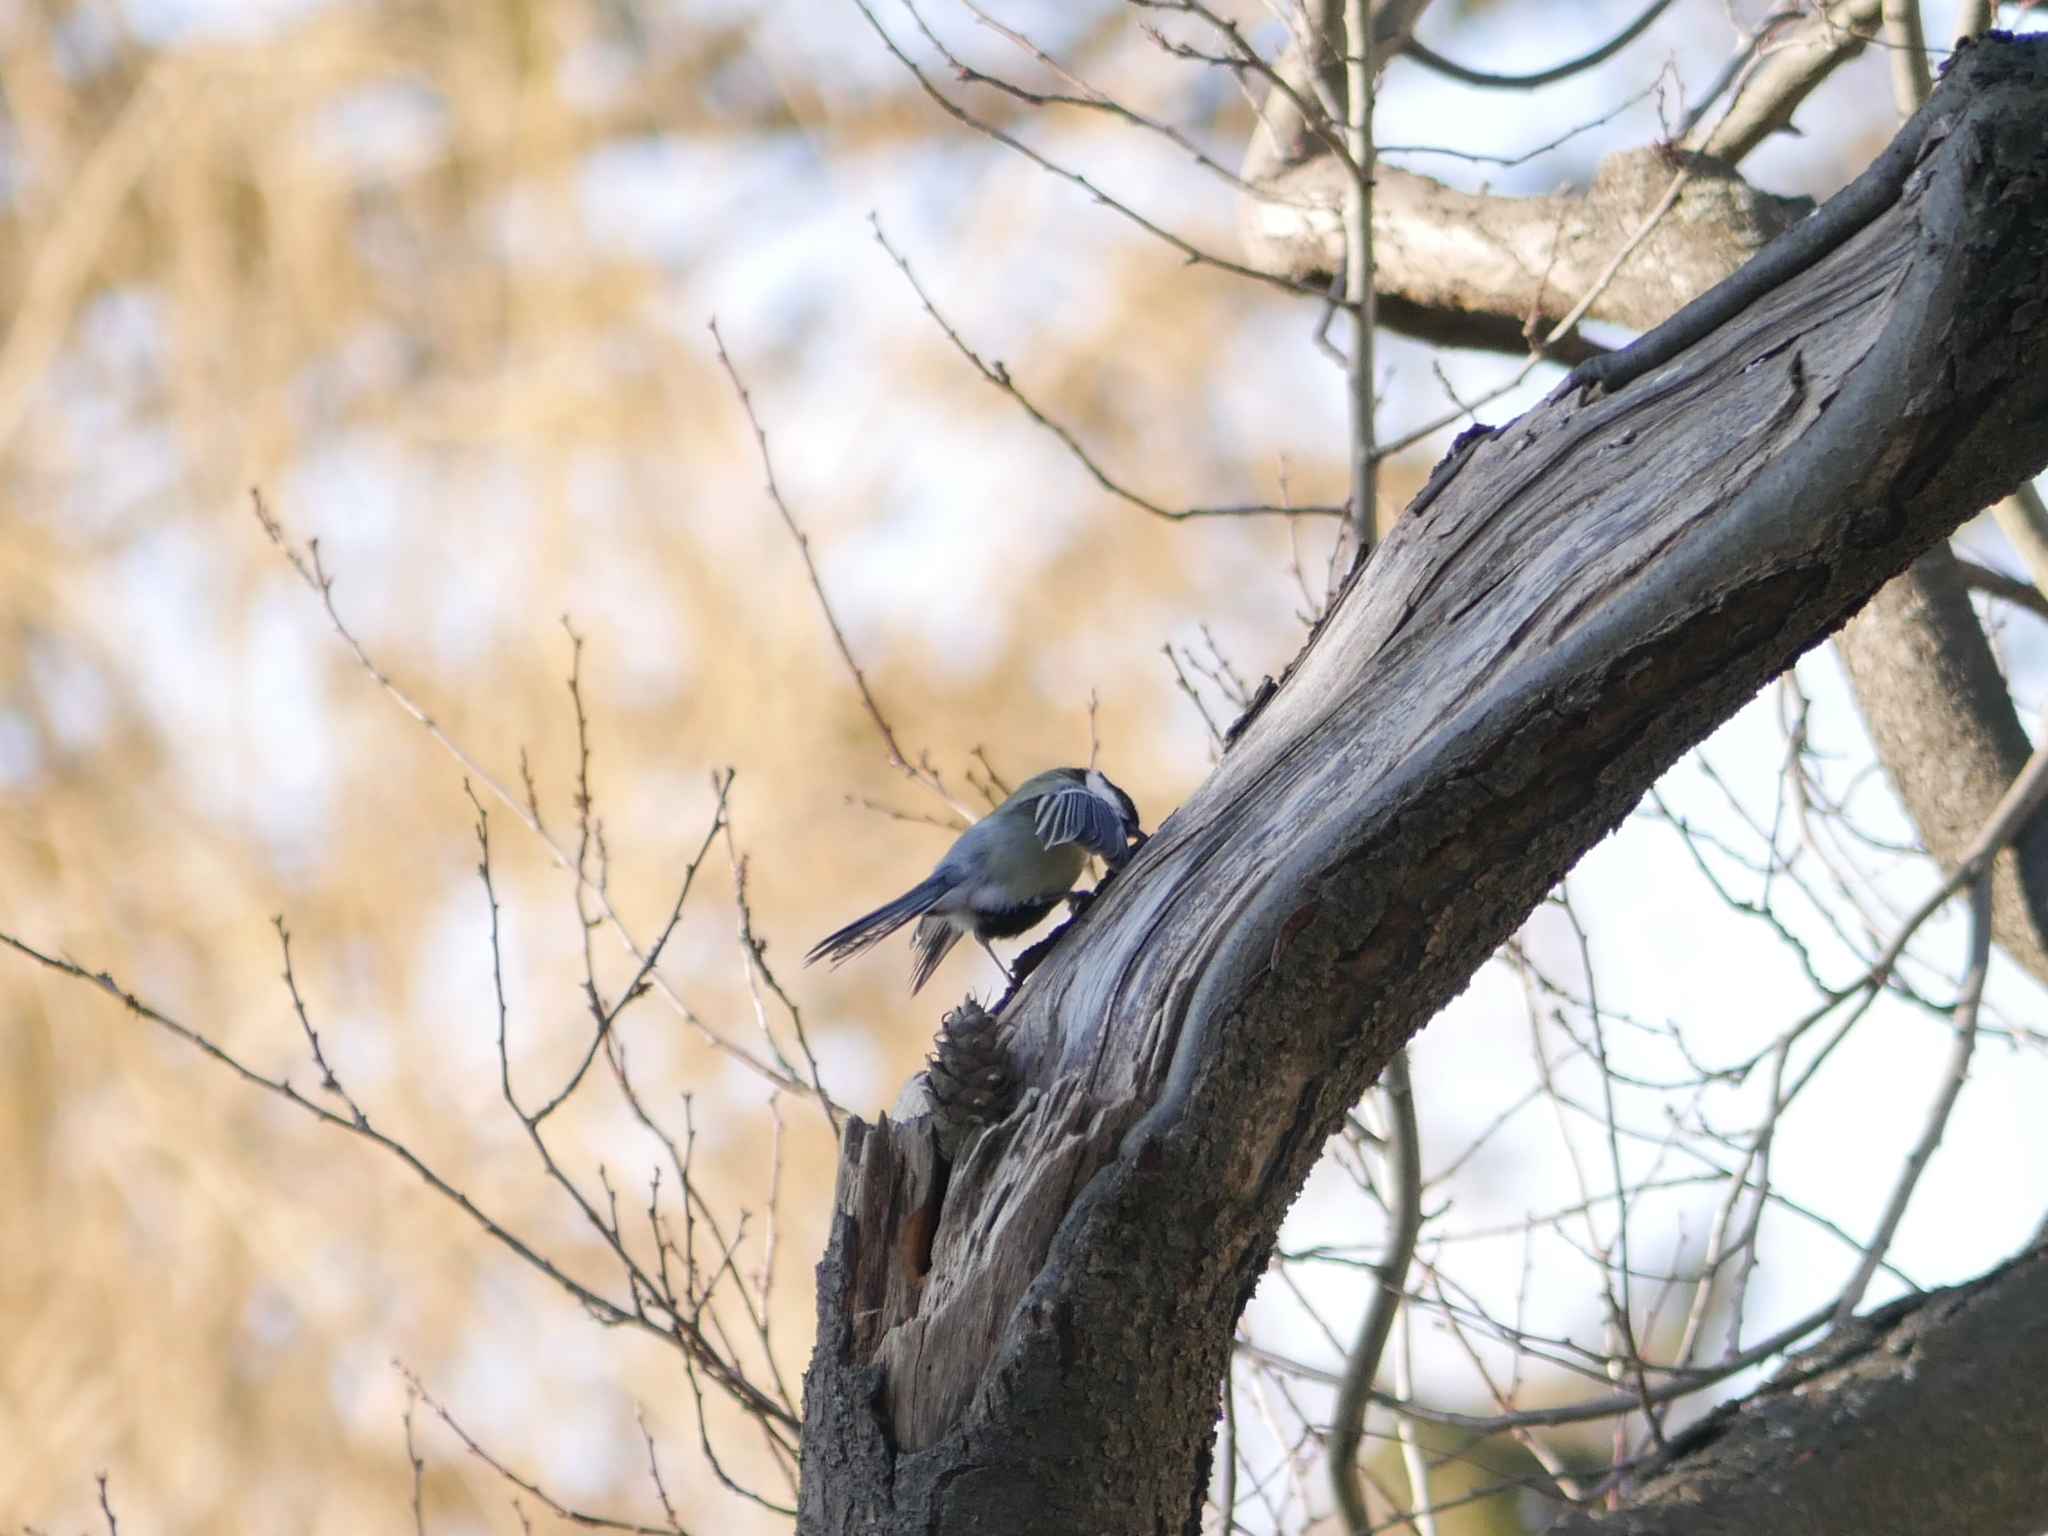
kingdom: Animalia
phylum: Chordata
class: Aves
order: Passeriformes
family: Paridae
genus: Parus
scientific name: Parus major
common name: Great tit
